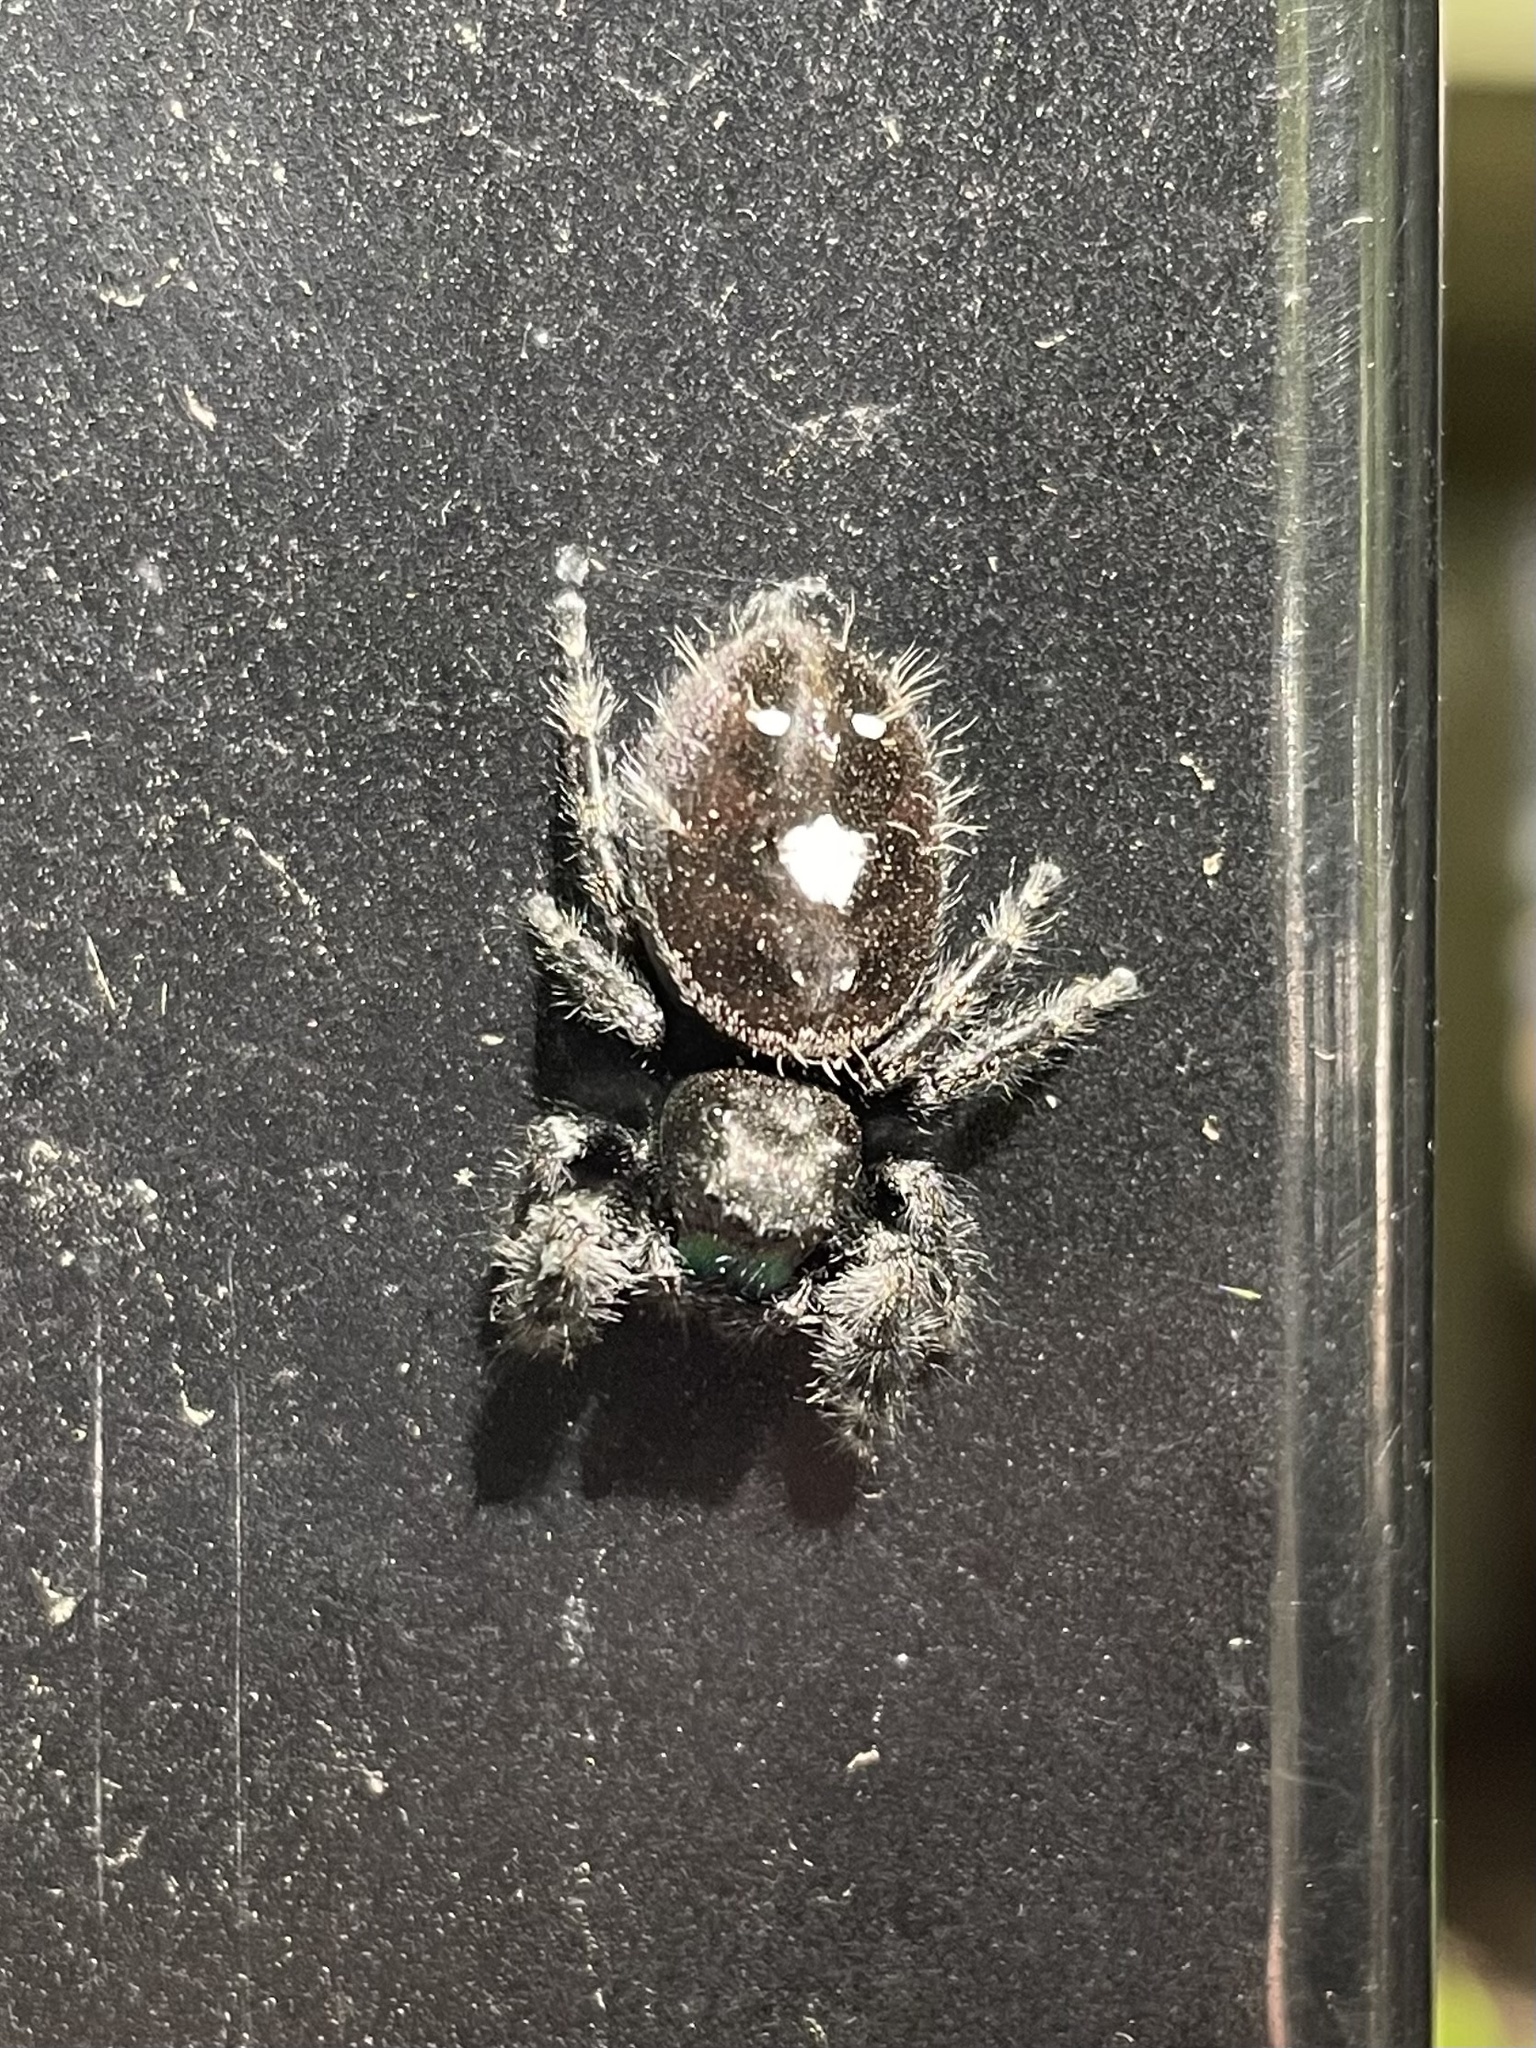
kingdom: Animalia
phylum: Arthropoda
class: Arachnida
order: Araneae
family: Salticidae
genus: Phidippus
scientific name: Phidippus audax
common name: Bold jumper
